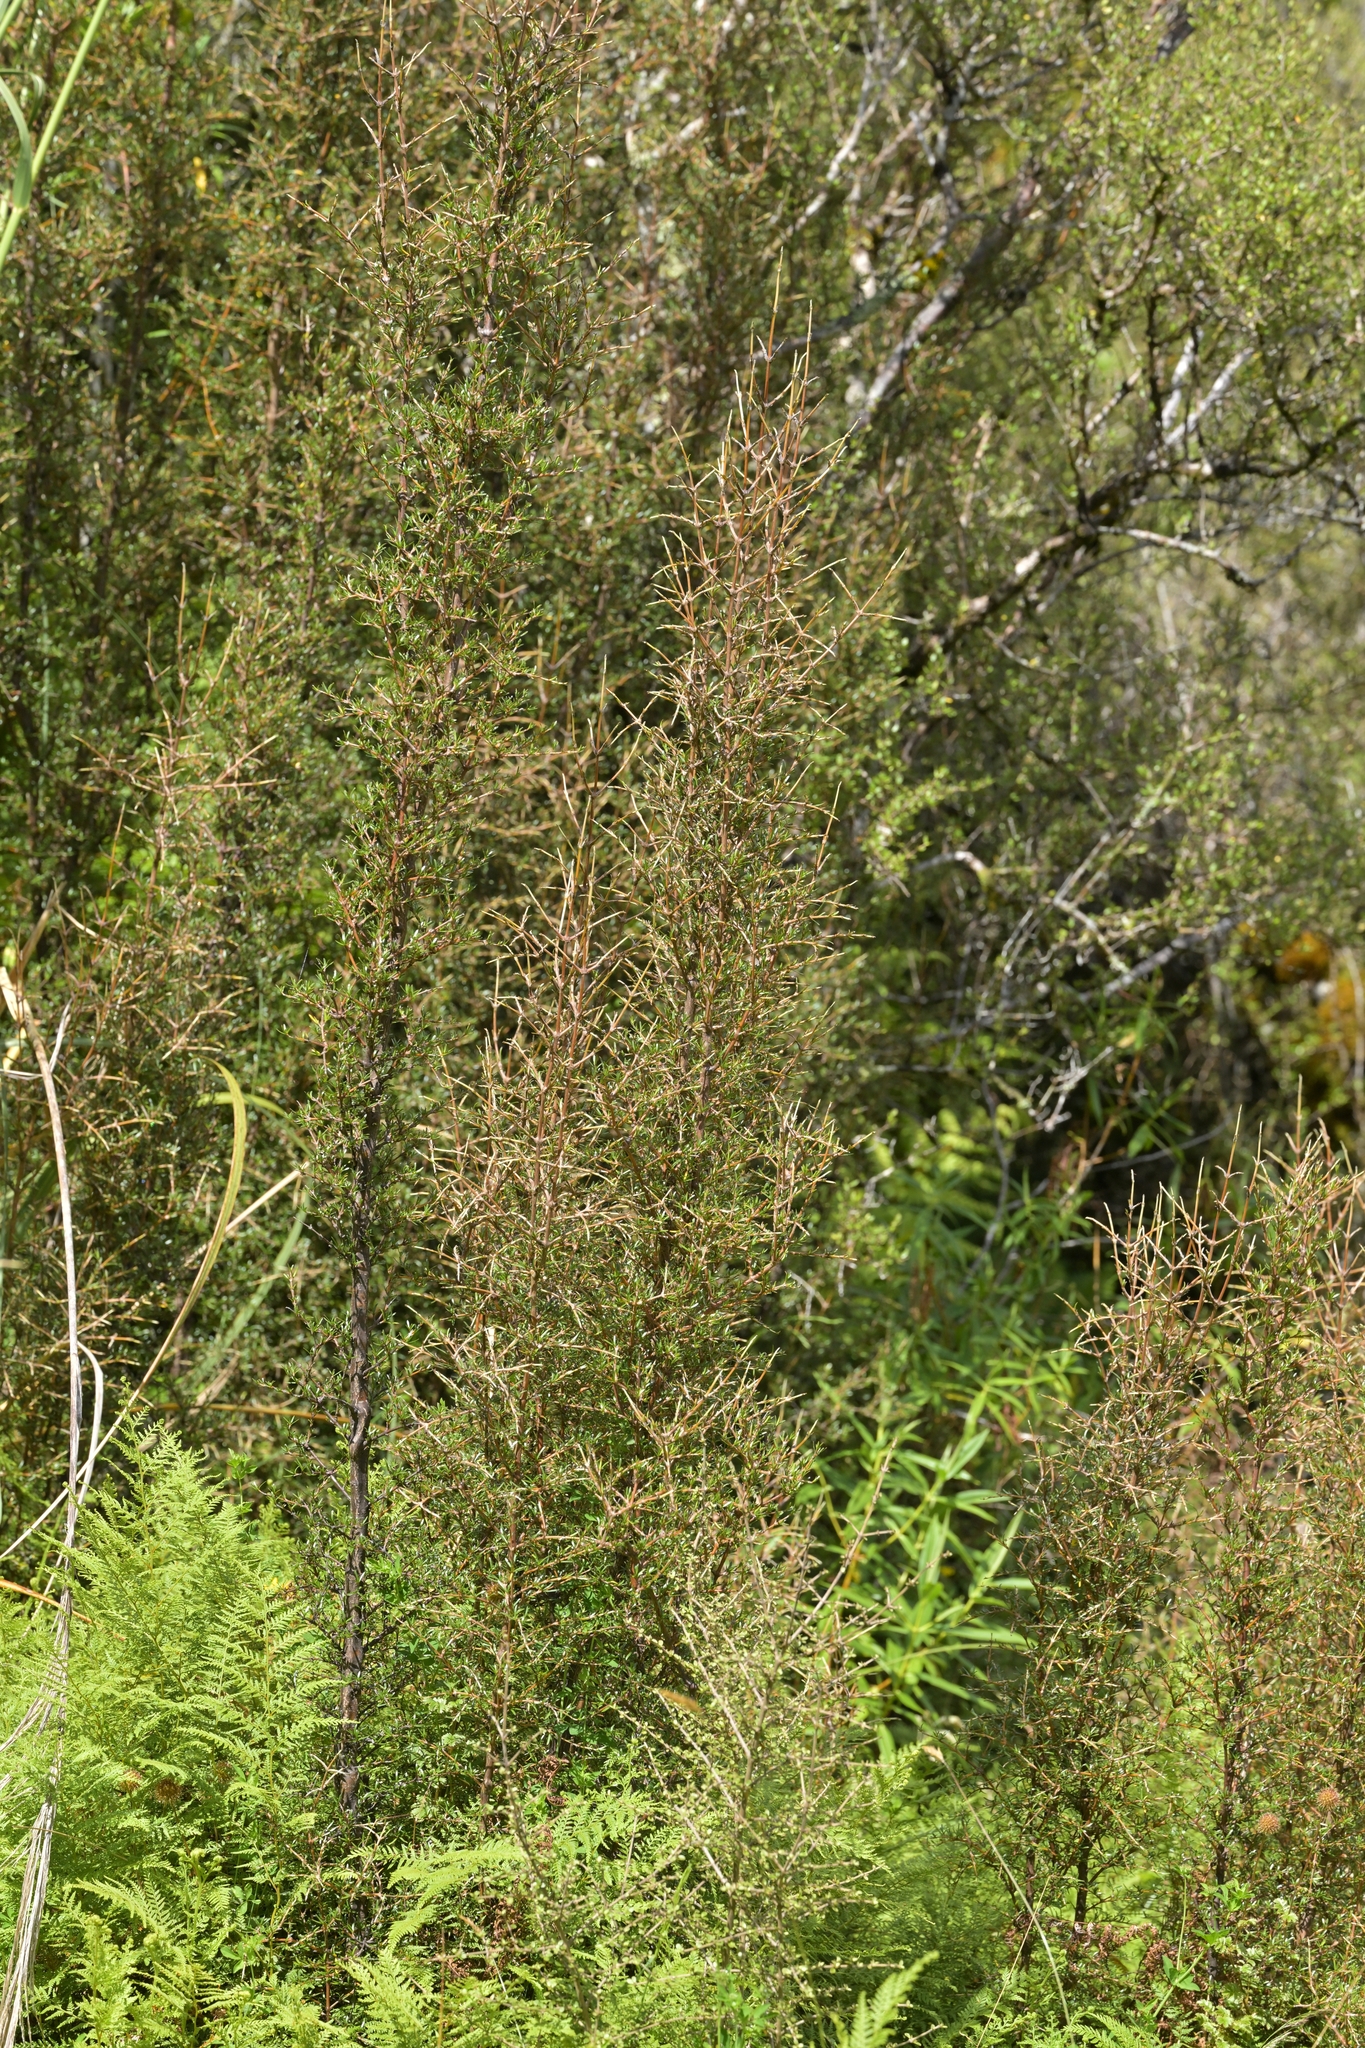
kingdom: Plantae
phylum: Tracheophyta
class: Magnoliopsida
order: Gentianales
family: Rubiaceae
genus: Coprosma
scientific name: Coprosma rugosa
